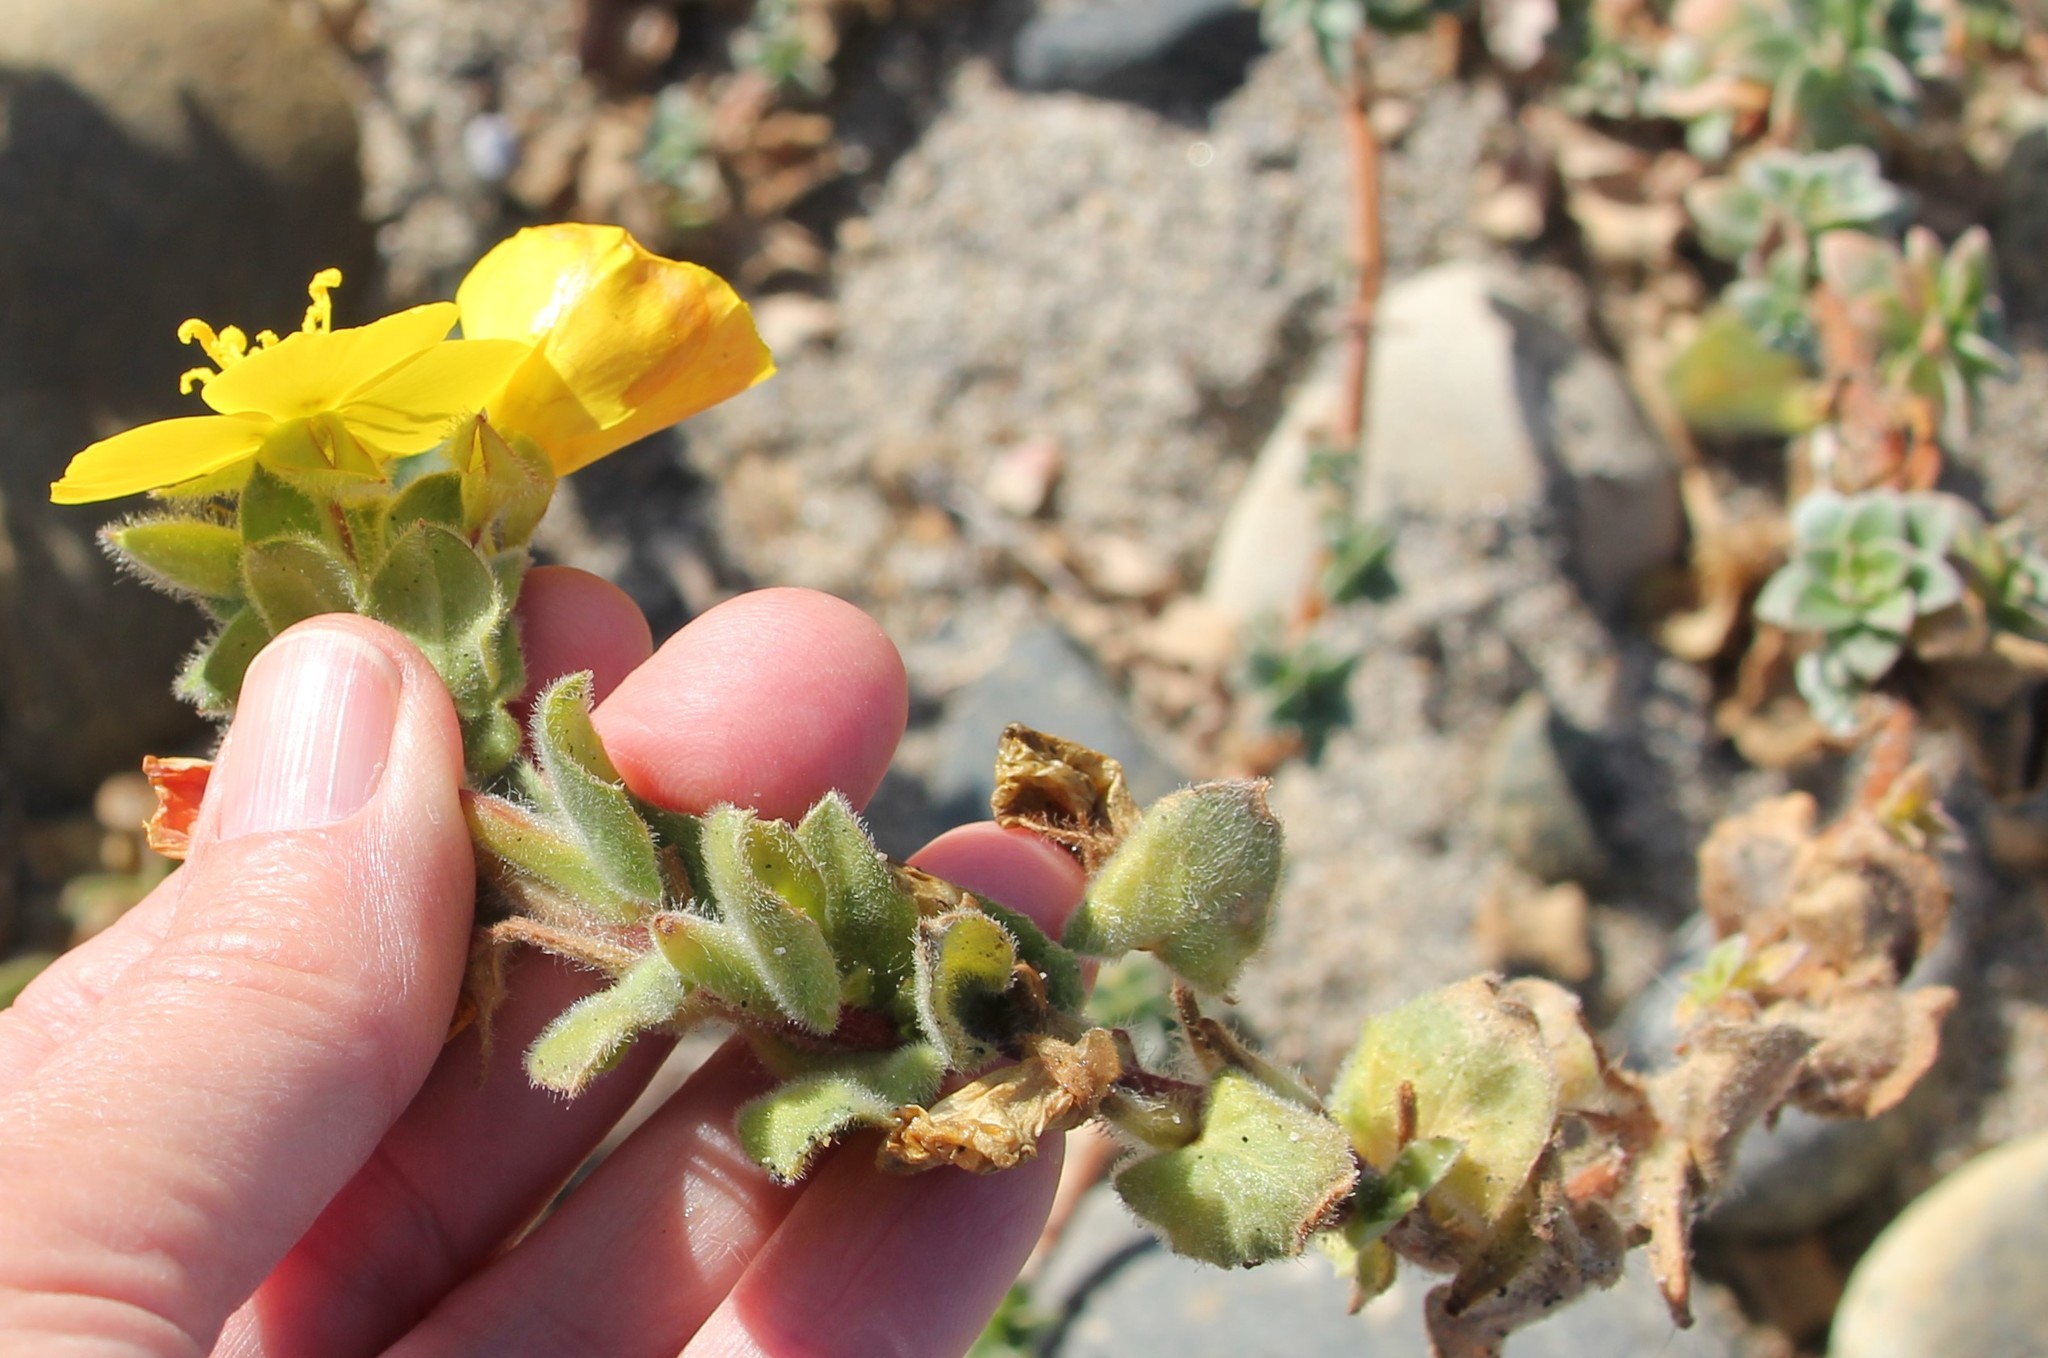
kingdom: Plantae
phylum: Tracheophyta
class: Magnoliopsida
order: Myrtales
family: Onagraceae
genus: Camissoniopsis
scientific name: Camissoniopsis cheiranthifolia
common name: Beach suncup
